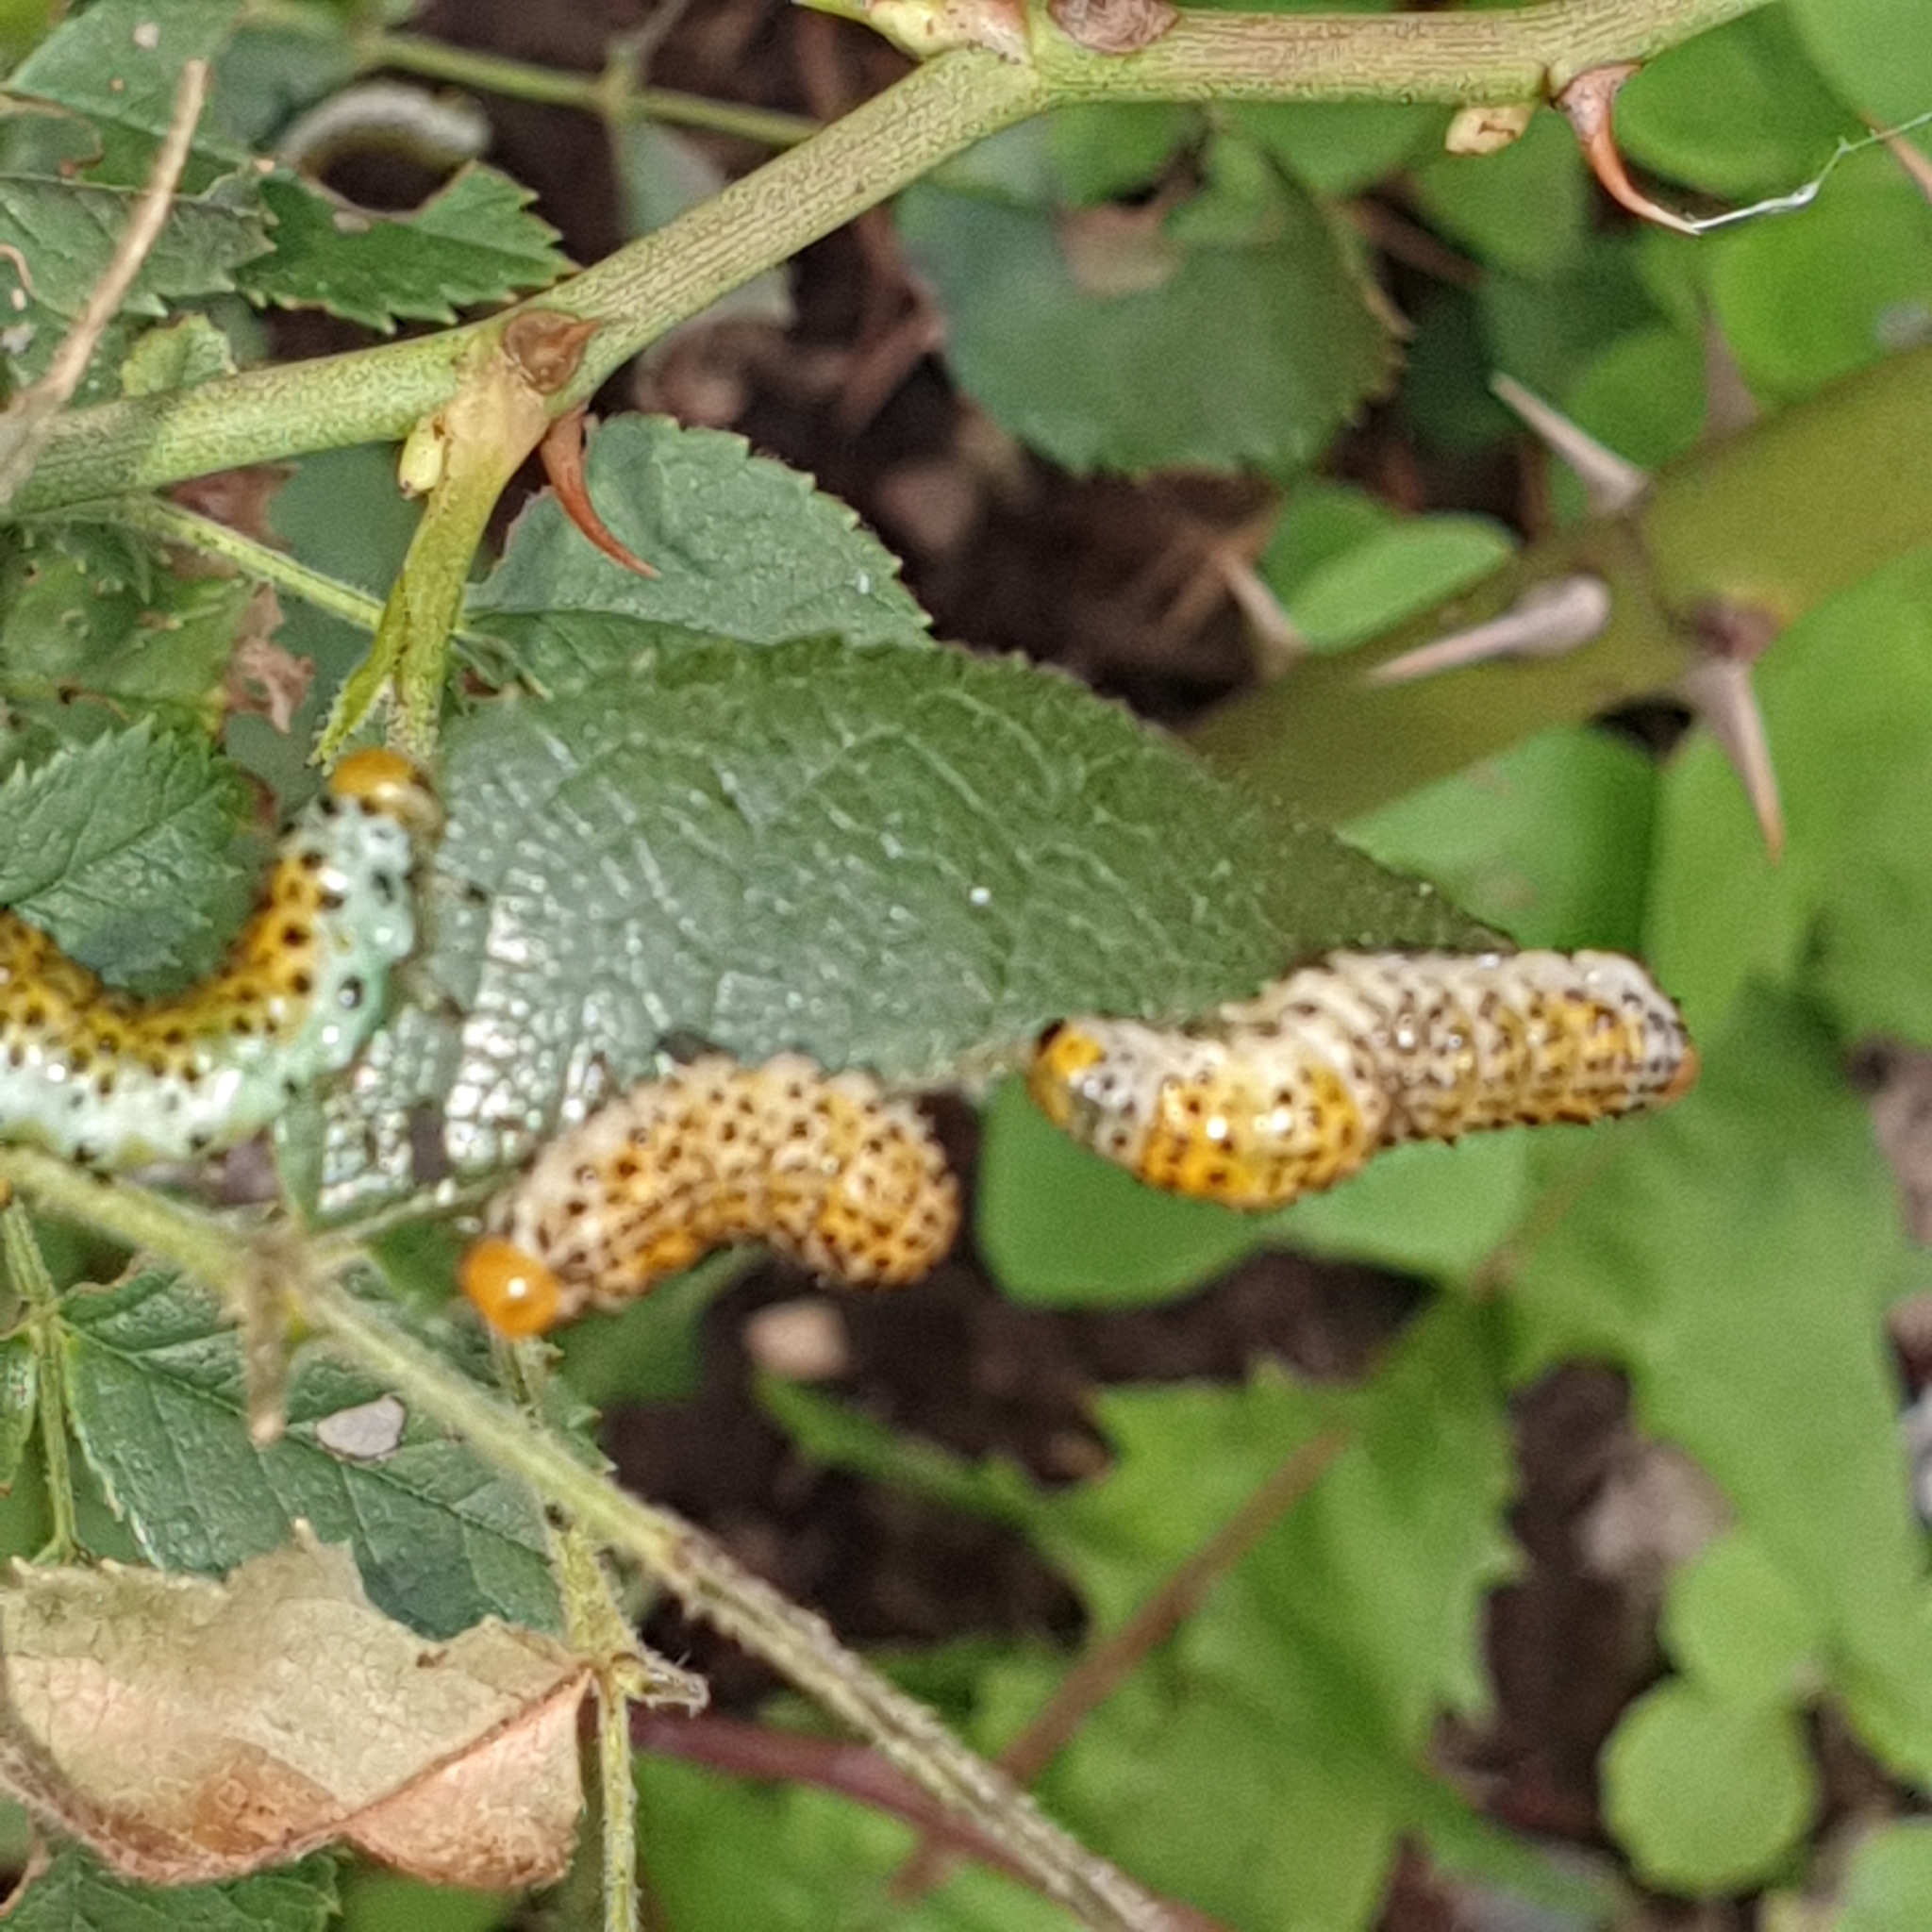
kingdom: Animalia
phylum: Arthropoda
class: Insecta
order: Hymenoptera
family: Argidae
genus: Arge
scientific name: Arge ochropus
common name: Argid sawfly
